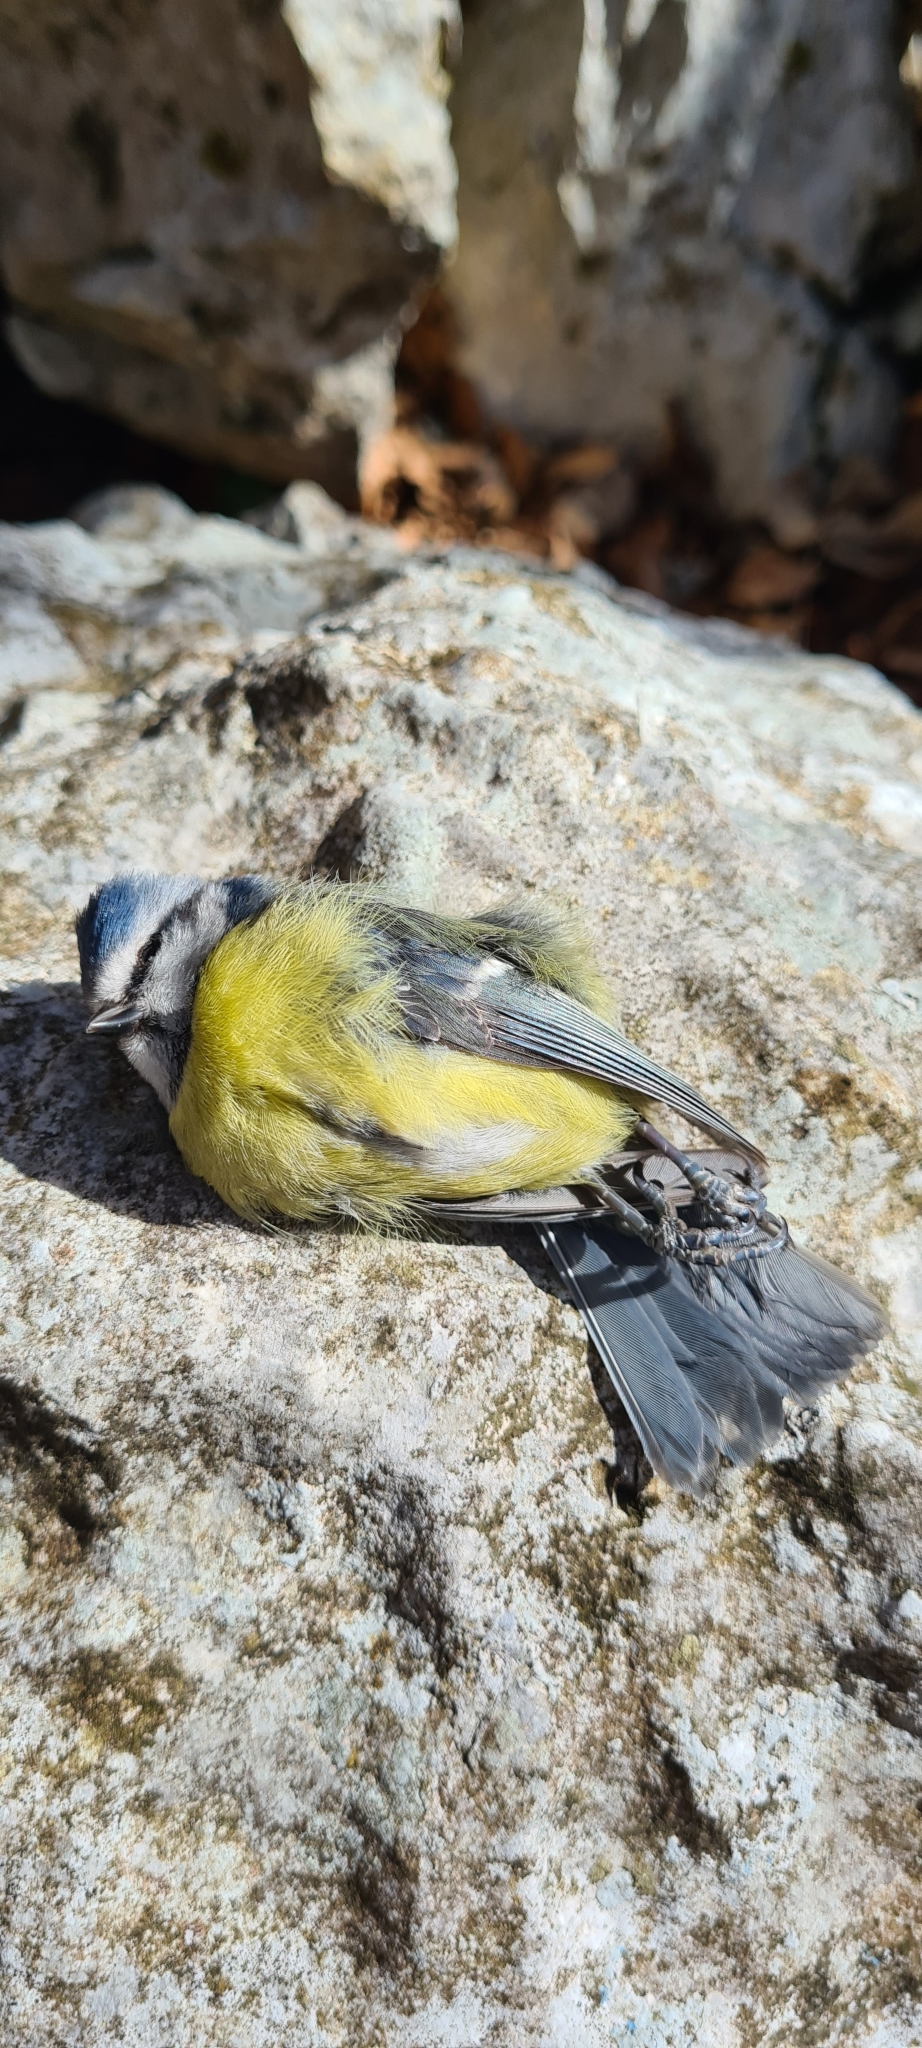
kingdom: Animalia
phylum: Chordata
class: Aves
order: Passeriformes
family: Paridae
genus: Cyanistes
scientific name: Cyanistes caeruleus
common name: Eurasian blue tit
